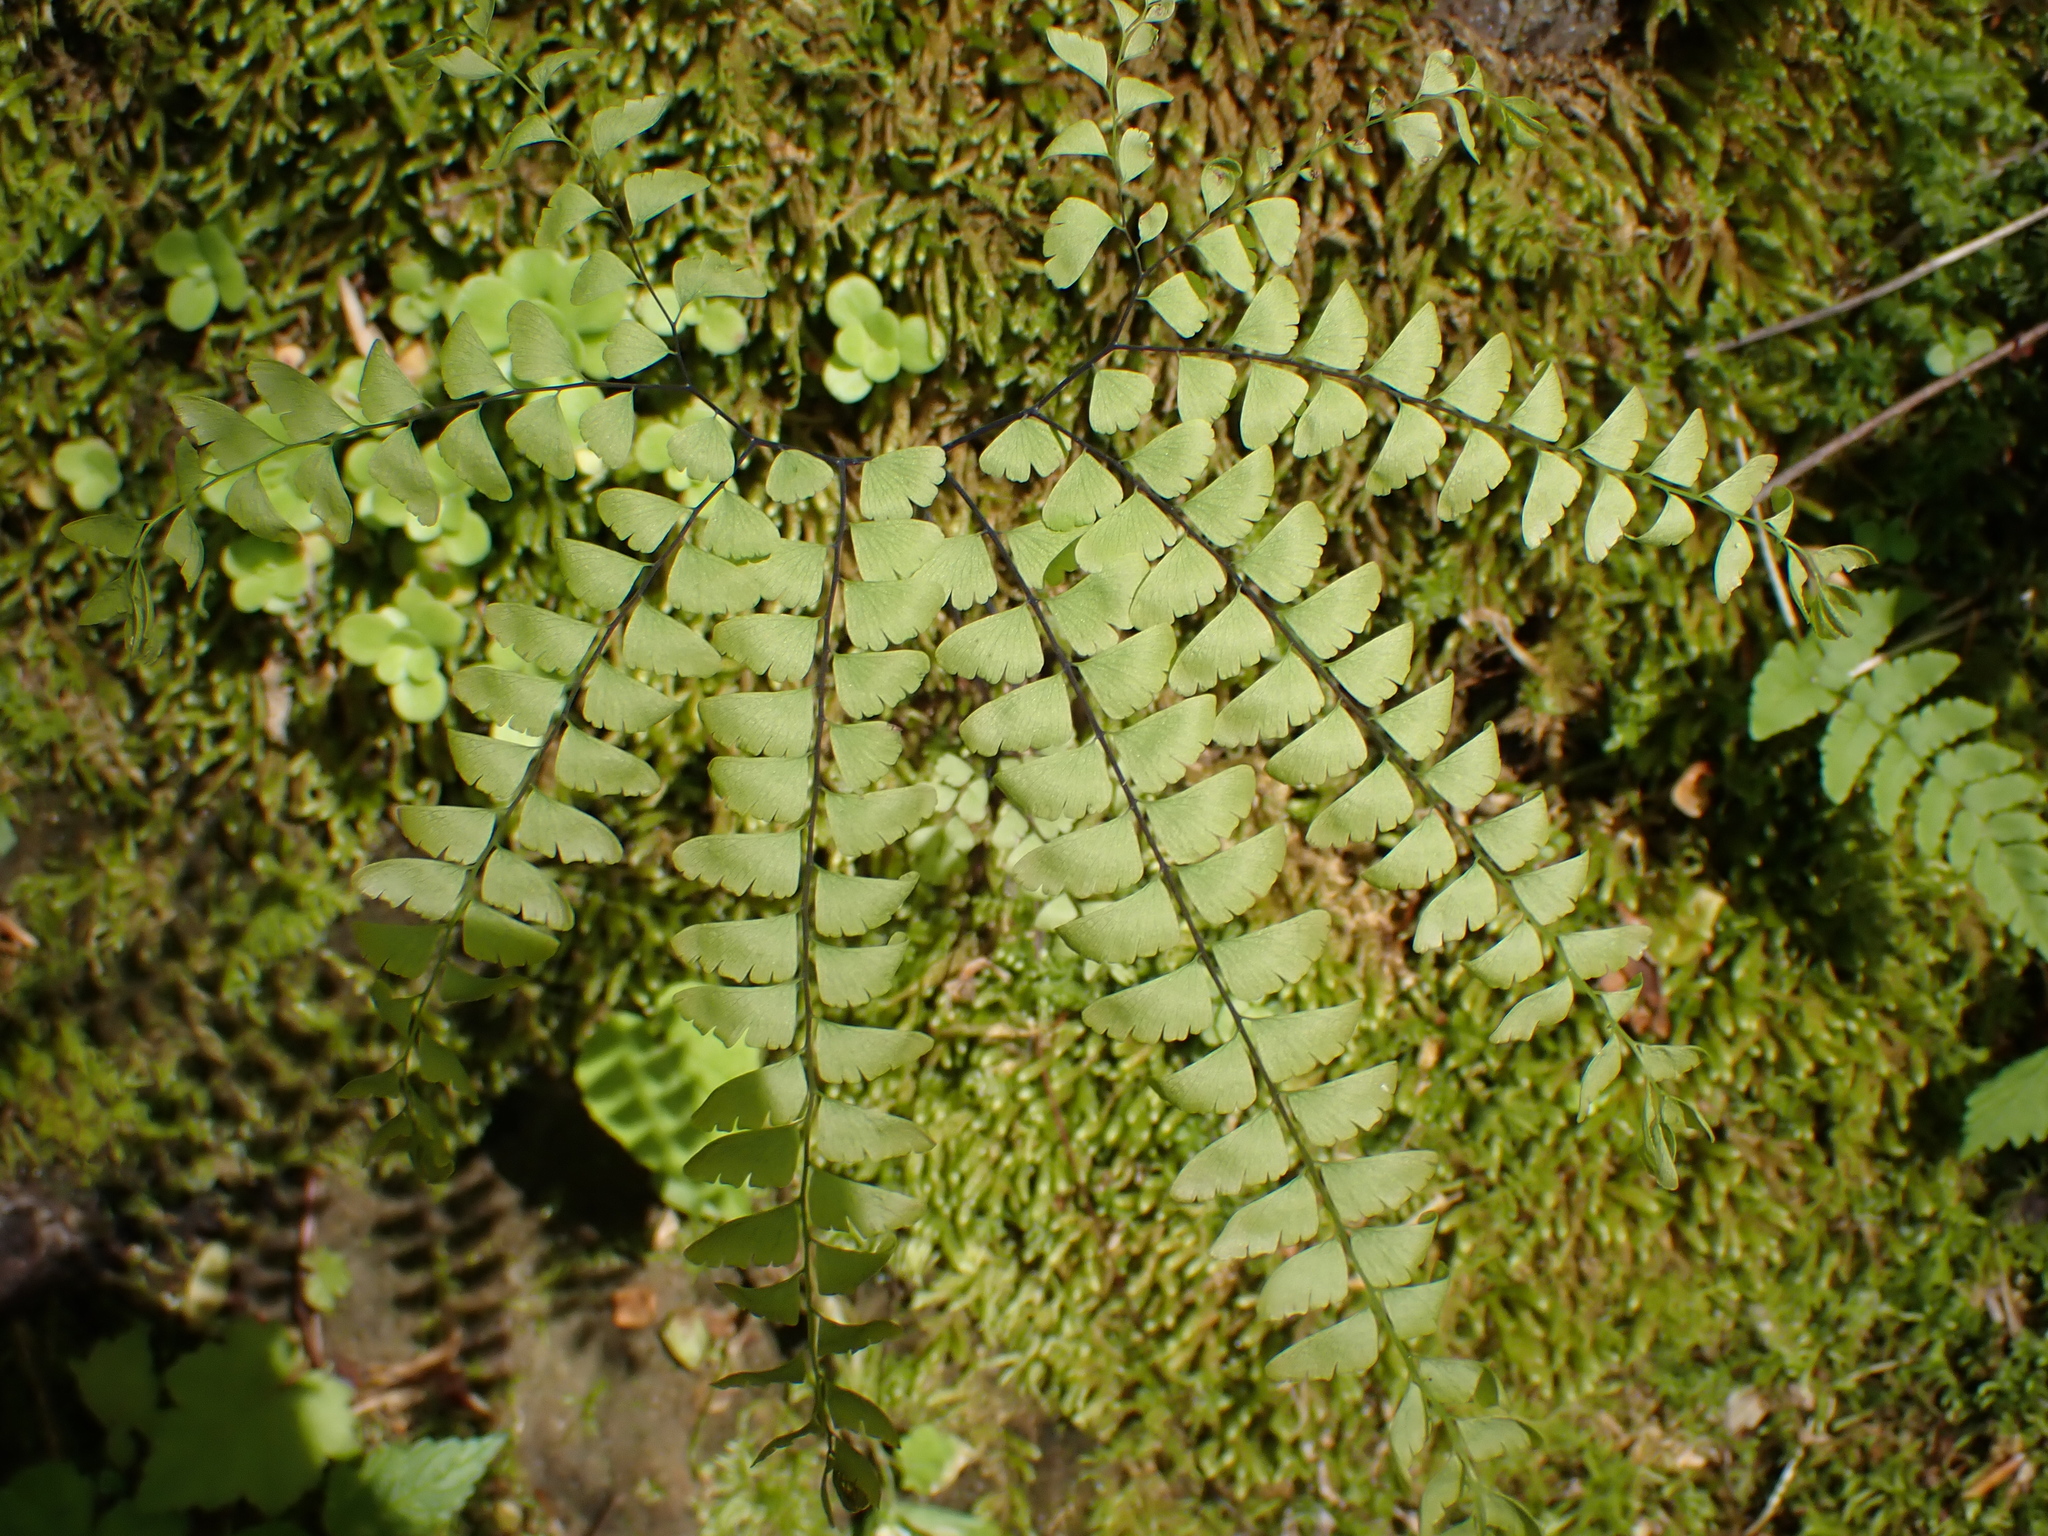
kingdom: Plantae
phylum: Tracheophyta
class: Polypodiopsida
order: Polypodiales
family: Pteridaceae
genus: Adiantum
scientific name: Adiantum pedatum
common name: Five-finger fern
